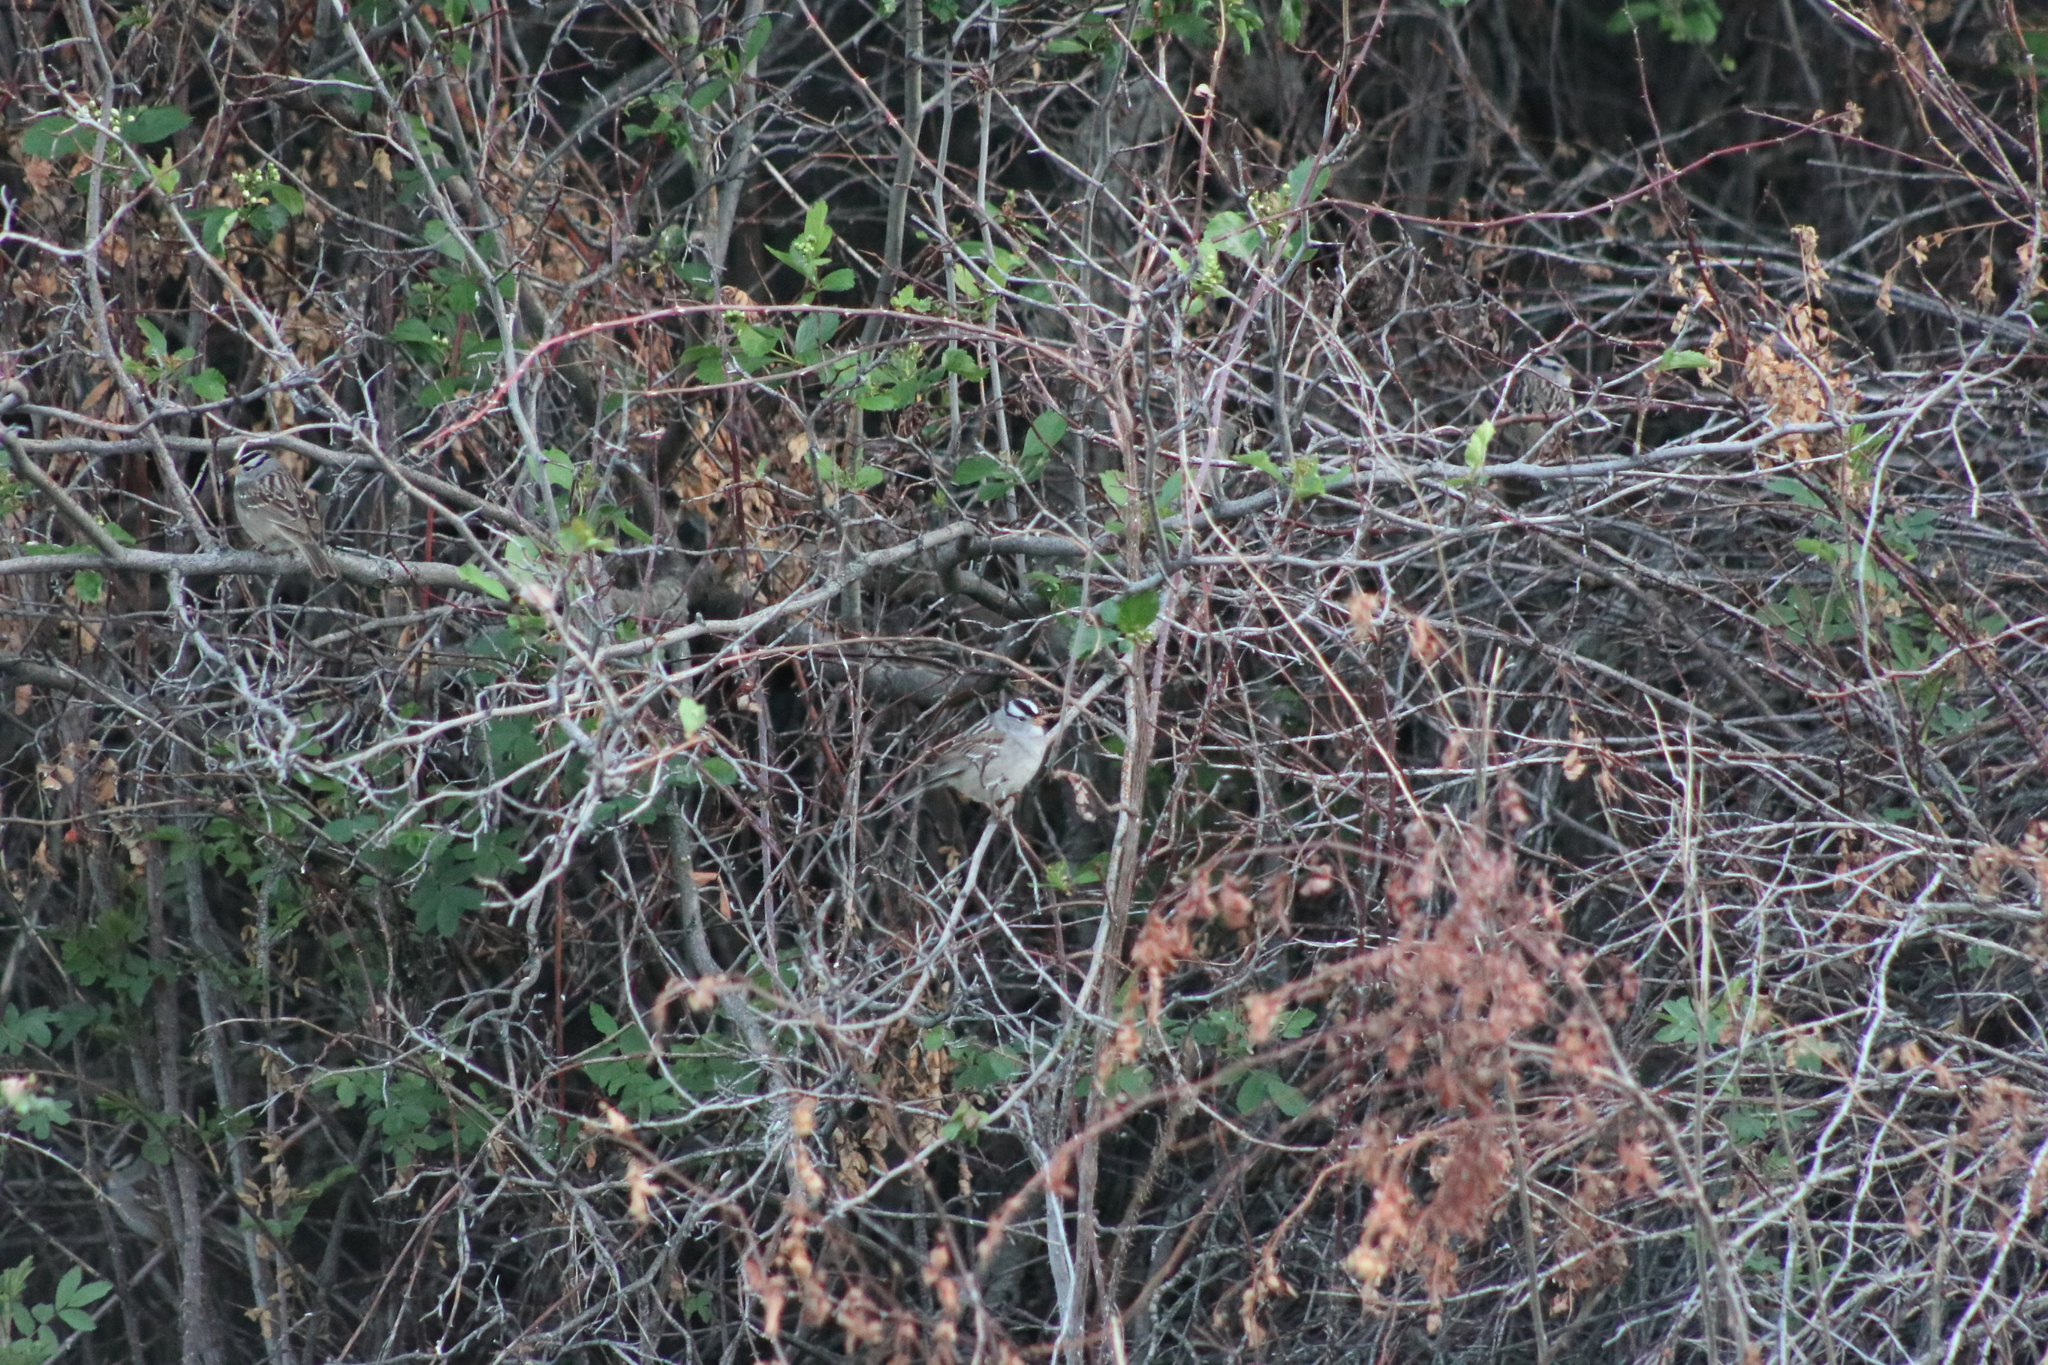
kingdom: Animalia
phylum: Chordata
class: Aves
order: Passeriformes
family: Passerellidae
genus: Zonotrichia
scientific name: Zonotrichia leucophrys
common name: White-crowned sparrow
